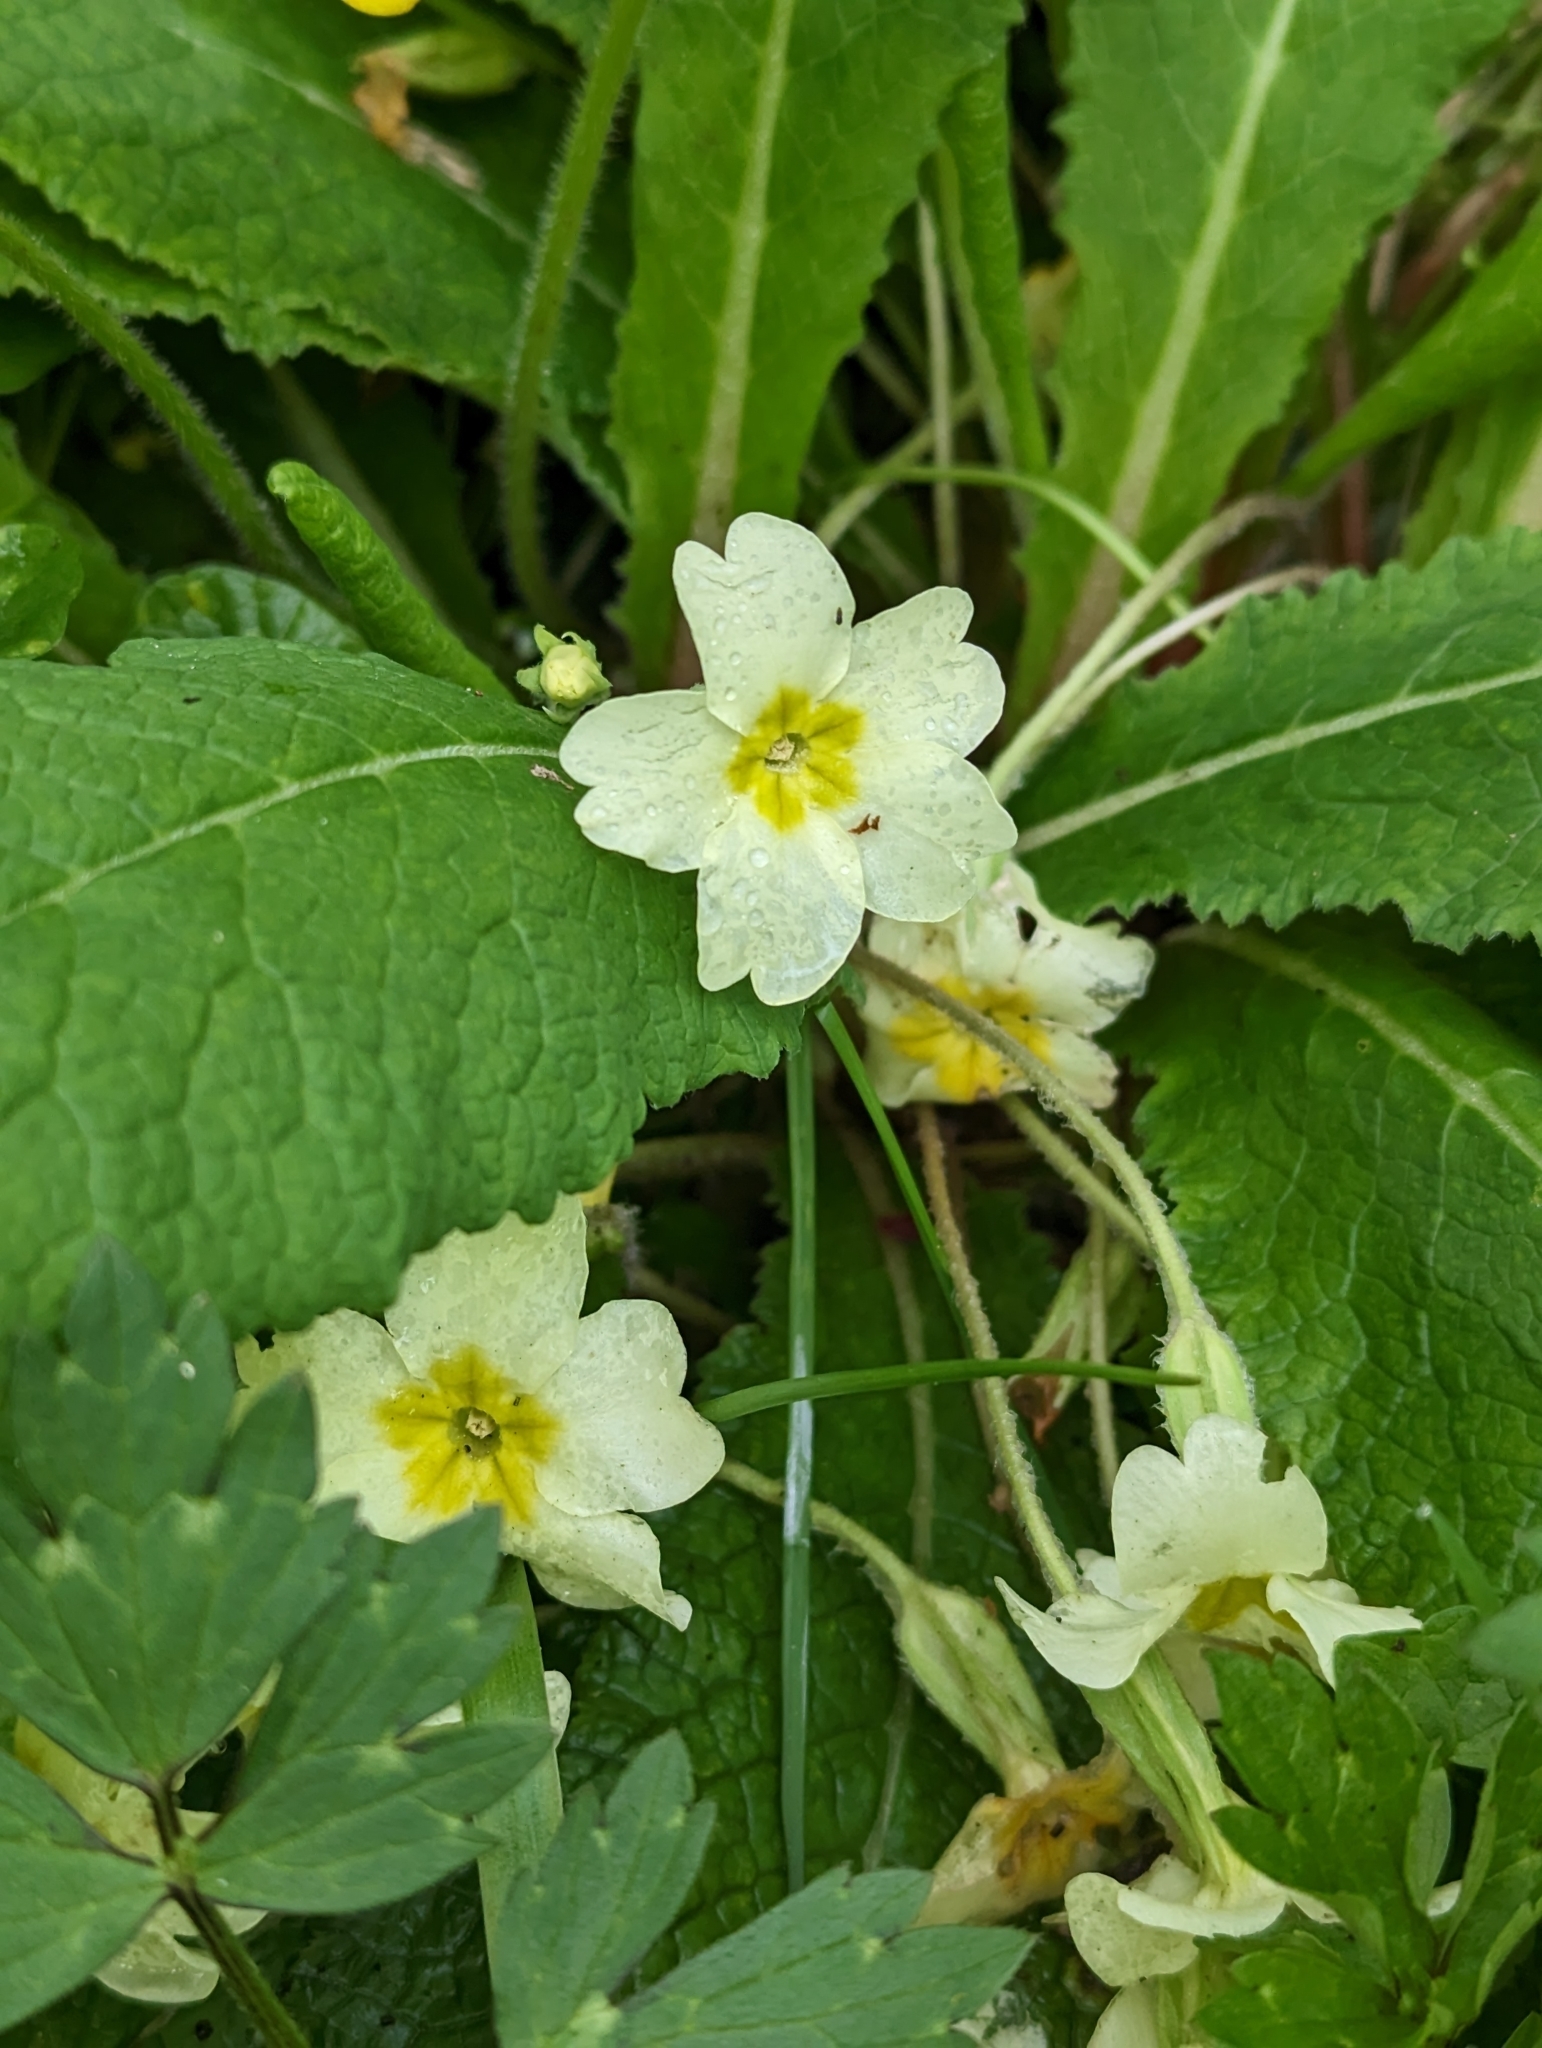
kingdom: Plantae
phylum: Tracheophyta
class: Magnoliopsida
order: Ericales
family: Primulaceae
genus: Primula
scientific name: Primula vulgaris
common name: Primrose
